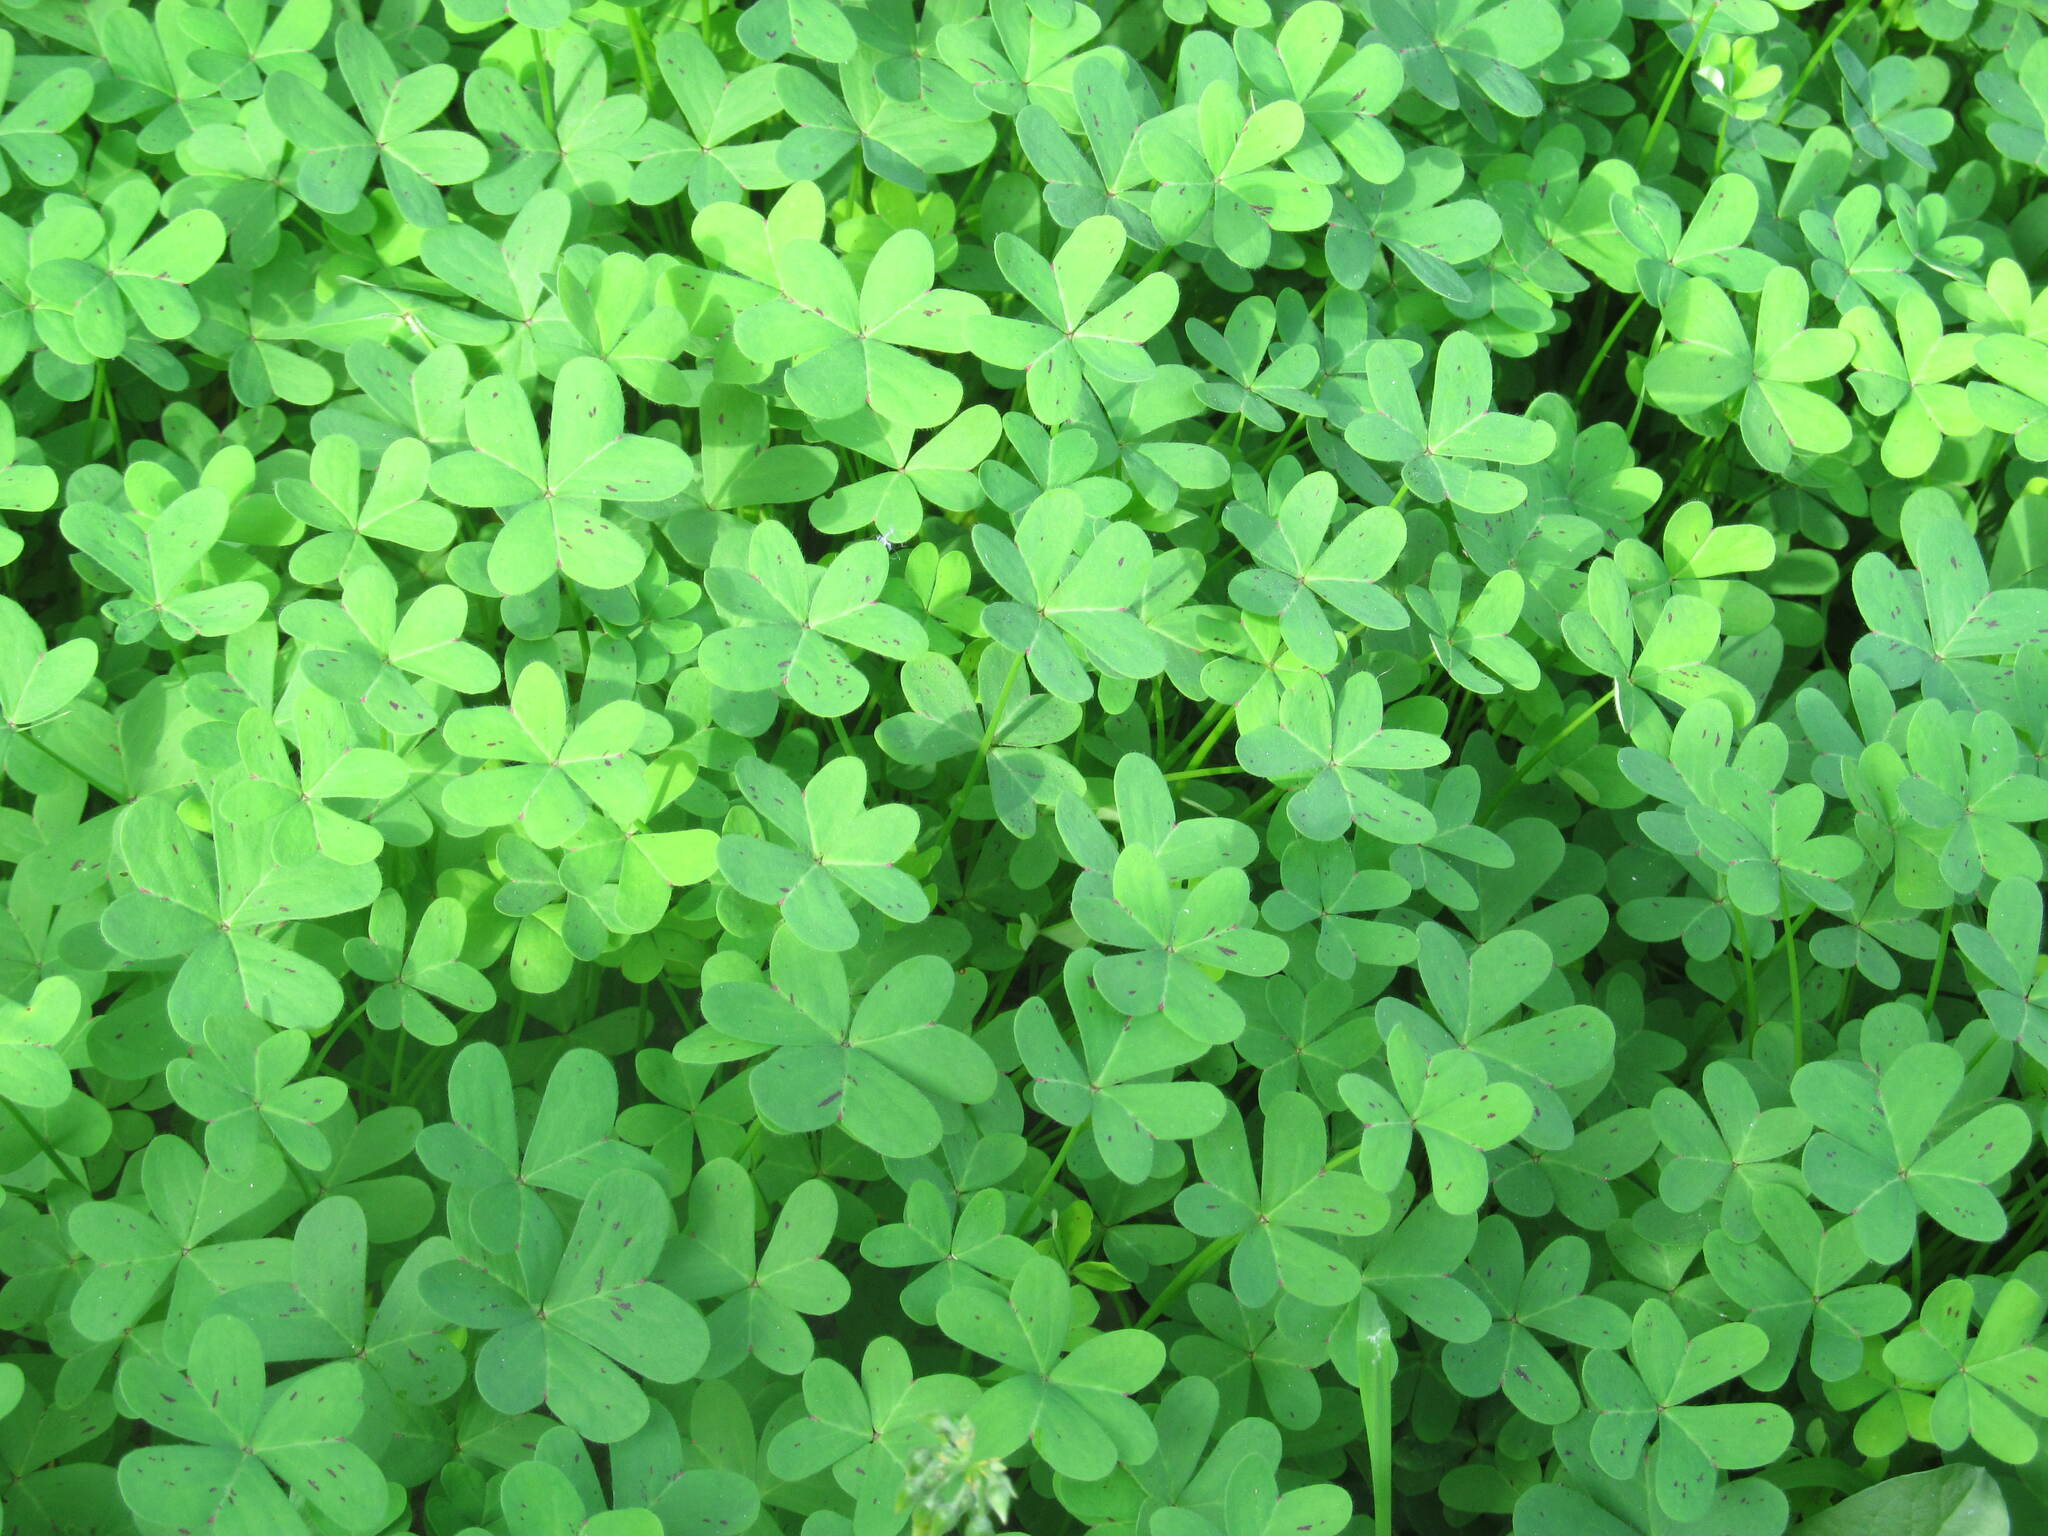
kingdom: Plantae
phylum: Tracheophyta
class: Magnoliopsida
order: Oxalidales
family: Oxalidaceae
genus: Oxalis
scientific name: Oxalis pes-caprae
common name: Bermuda-buttercup
